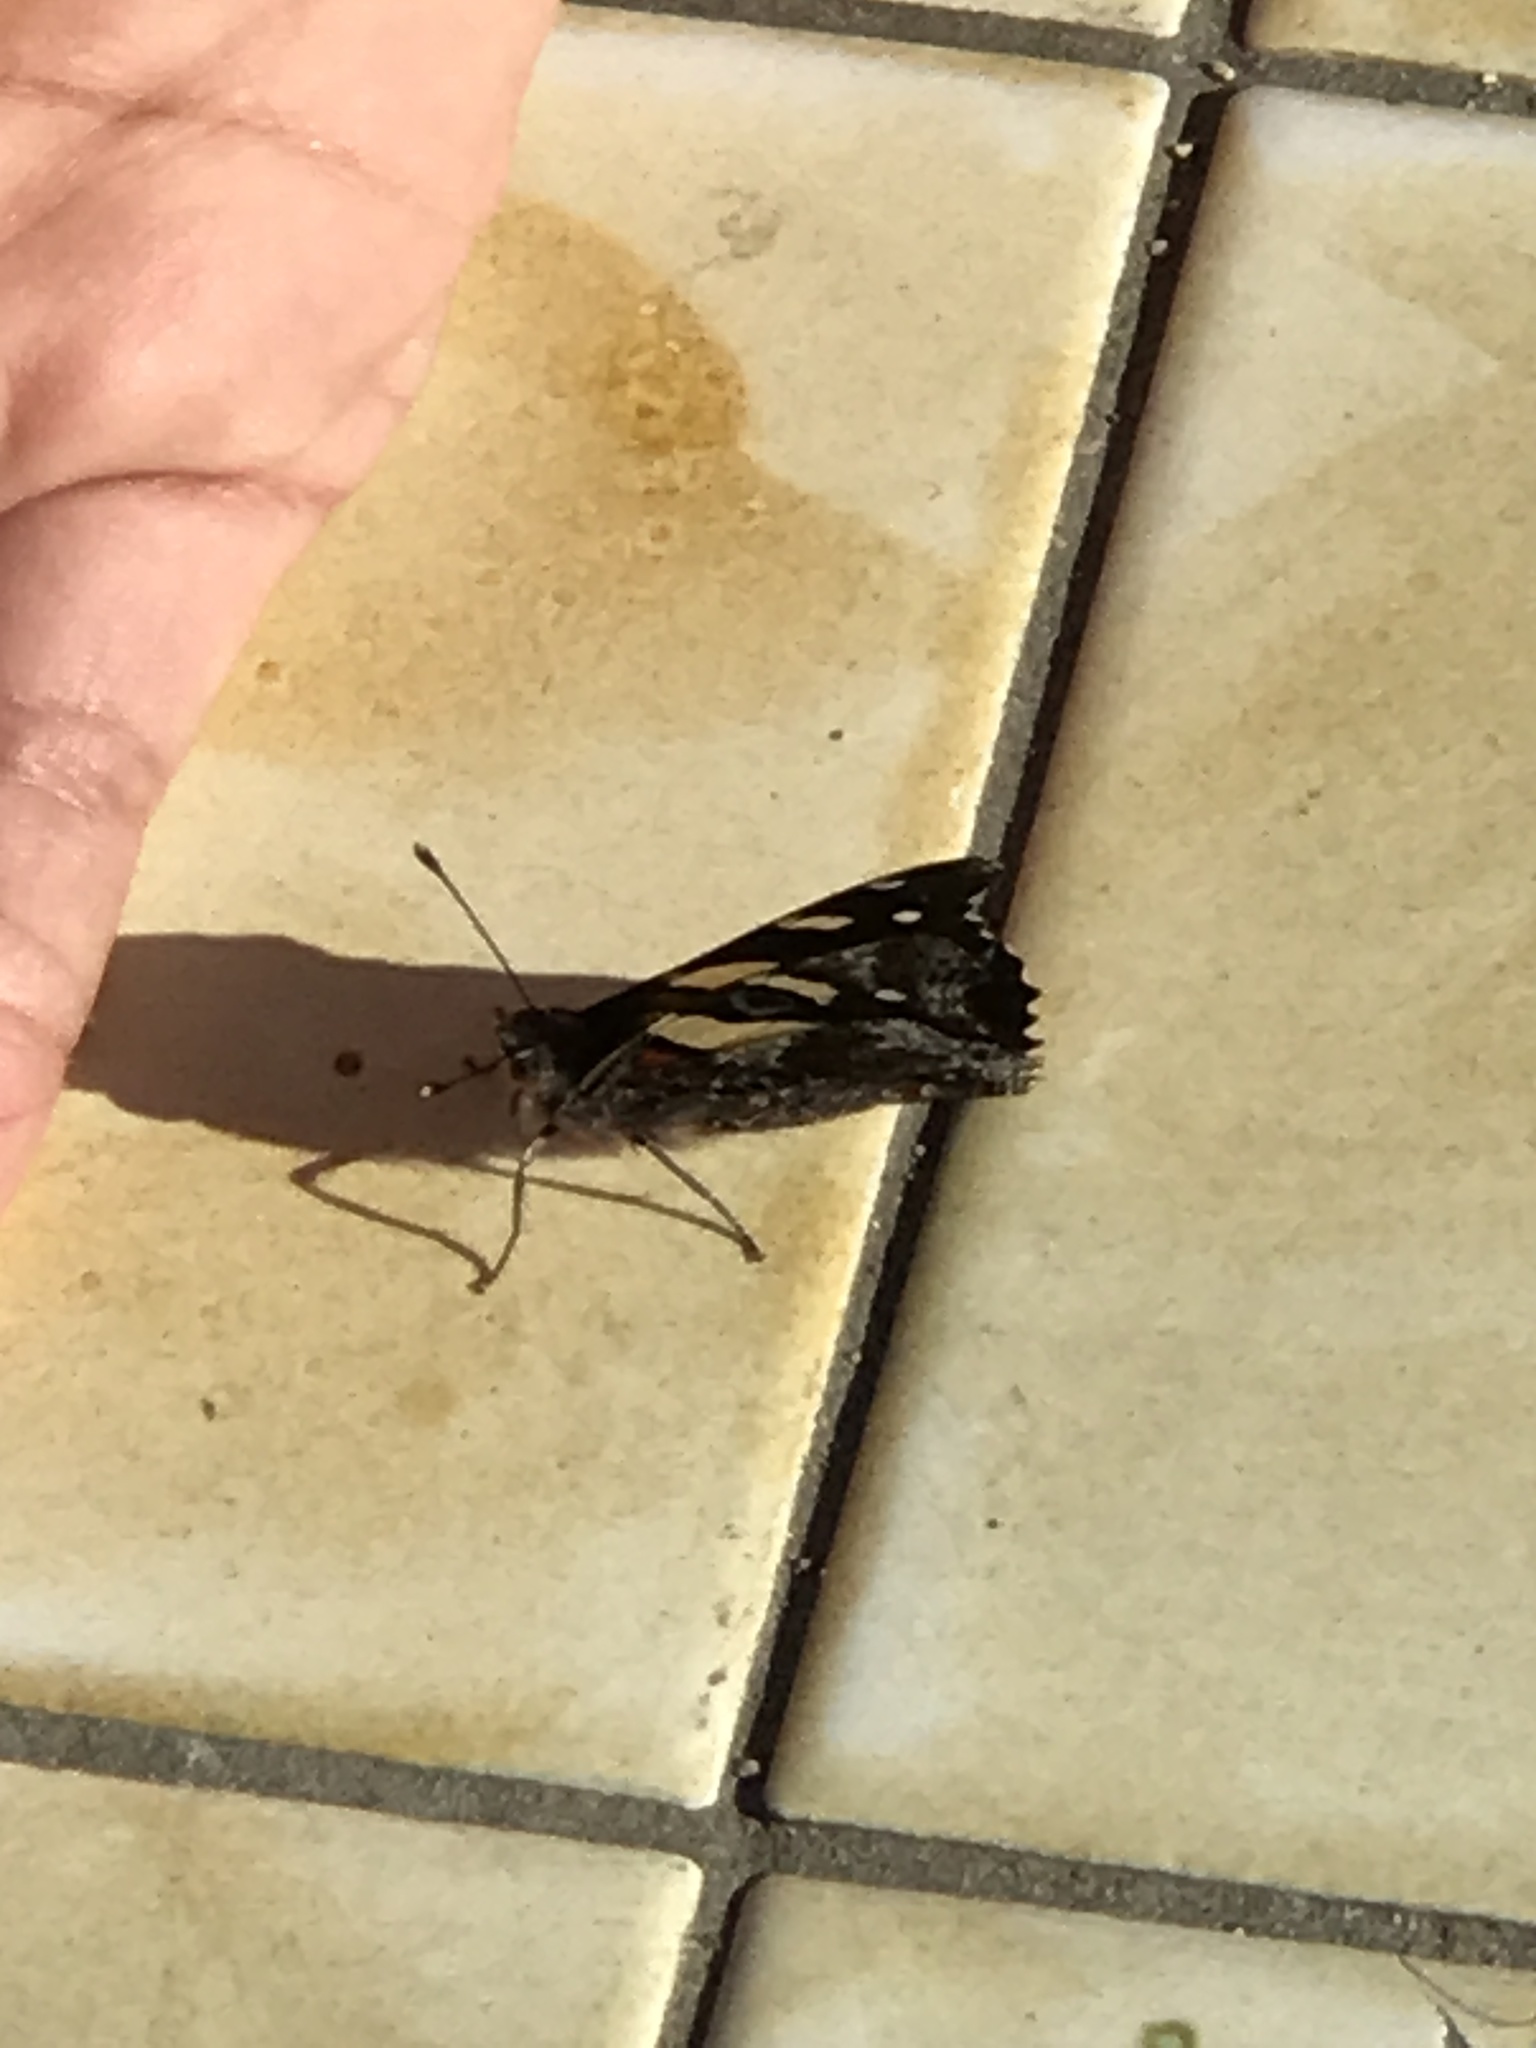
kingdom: Animalia
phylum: Arthropoda
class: Insecta
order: Lepidoptera
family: Nymphalidae
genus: Vanessa
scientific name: Vanessa itea
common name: Yellow admiral
